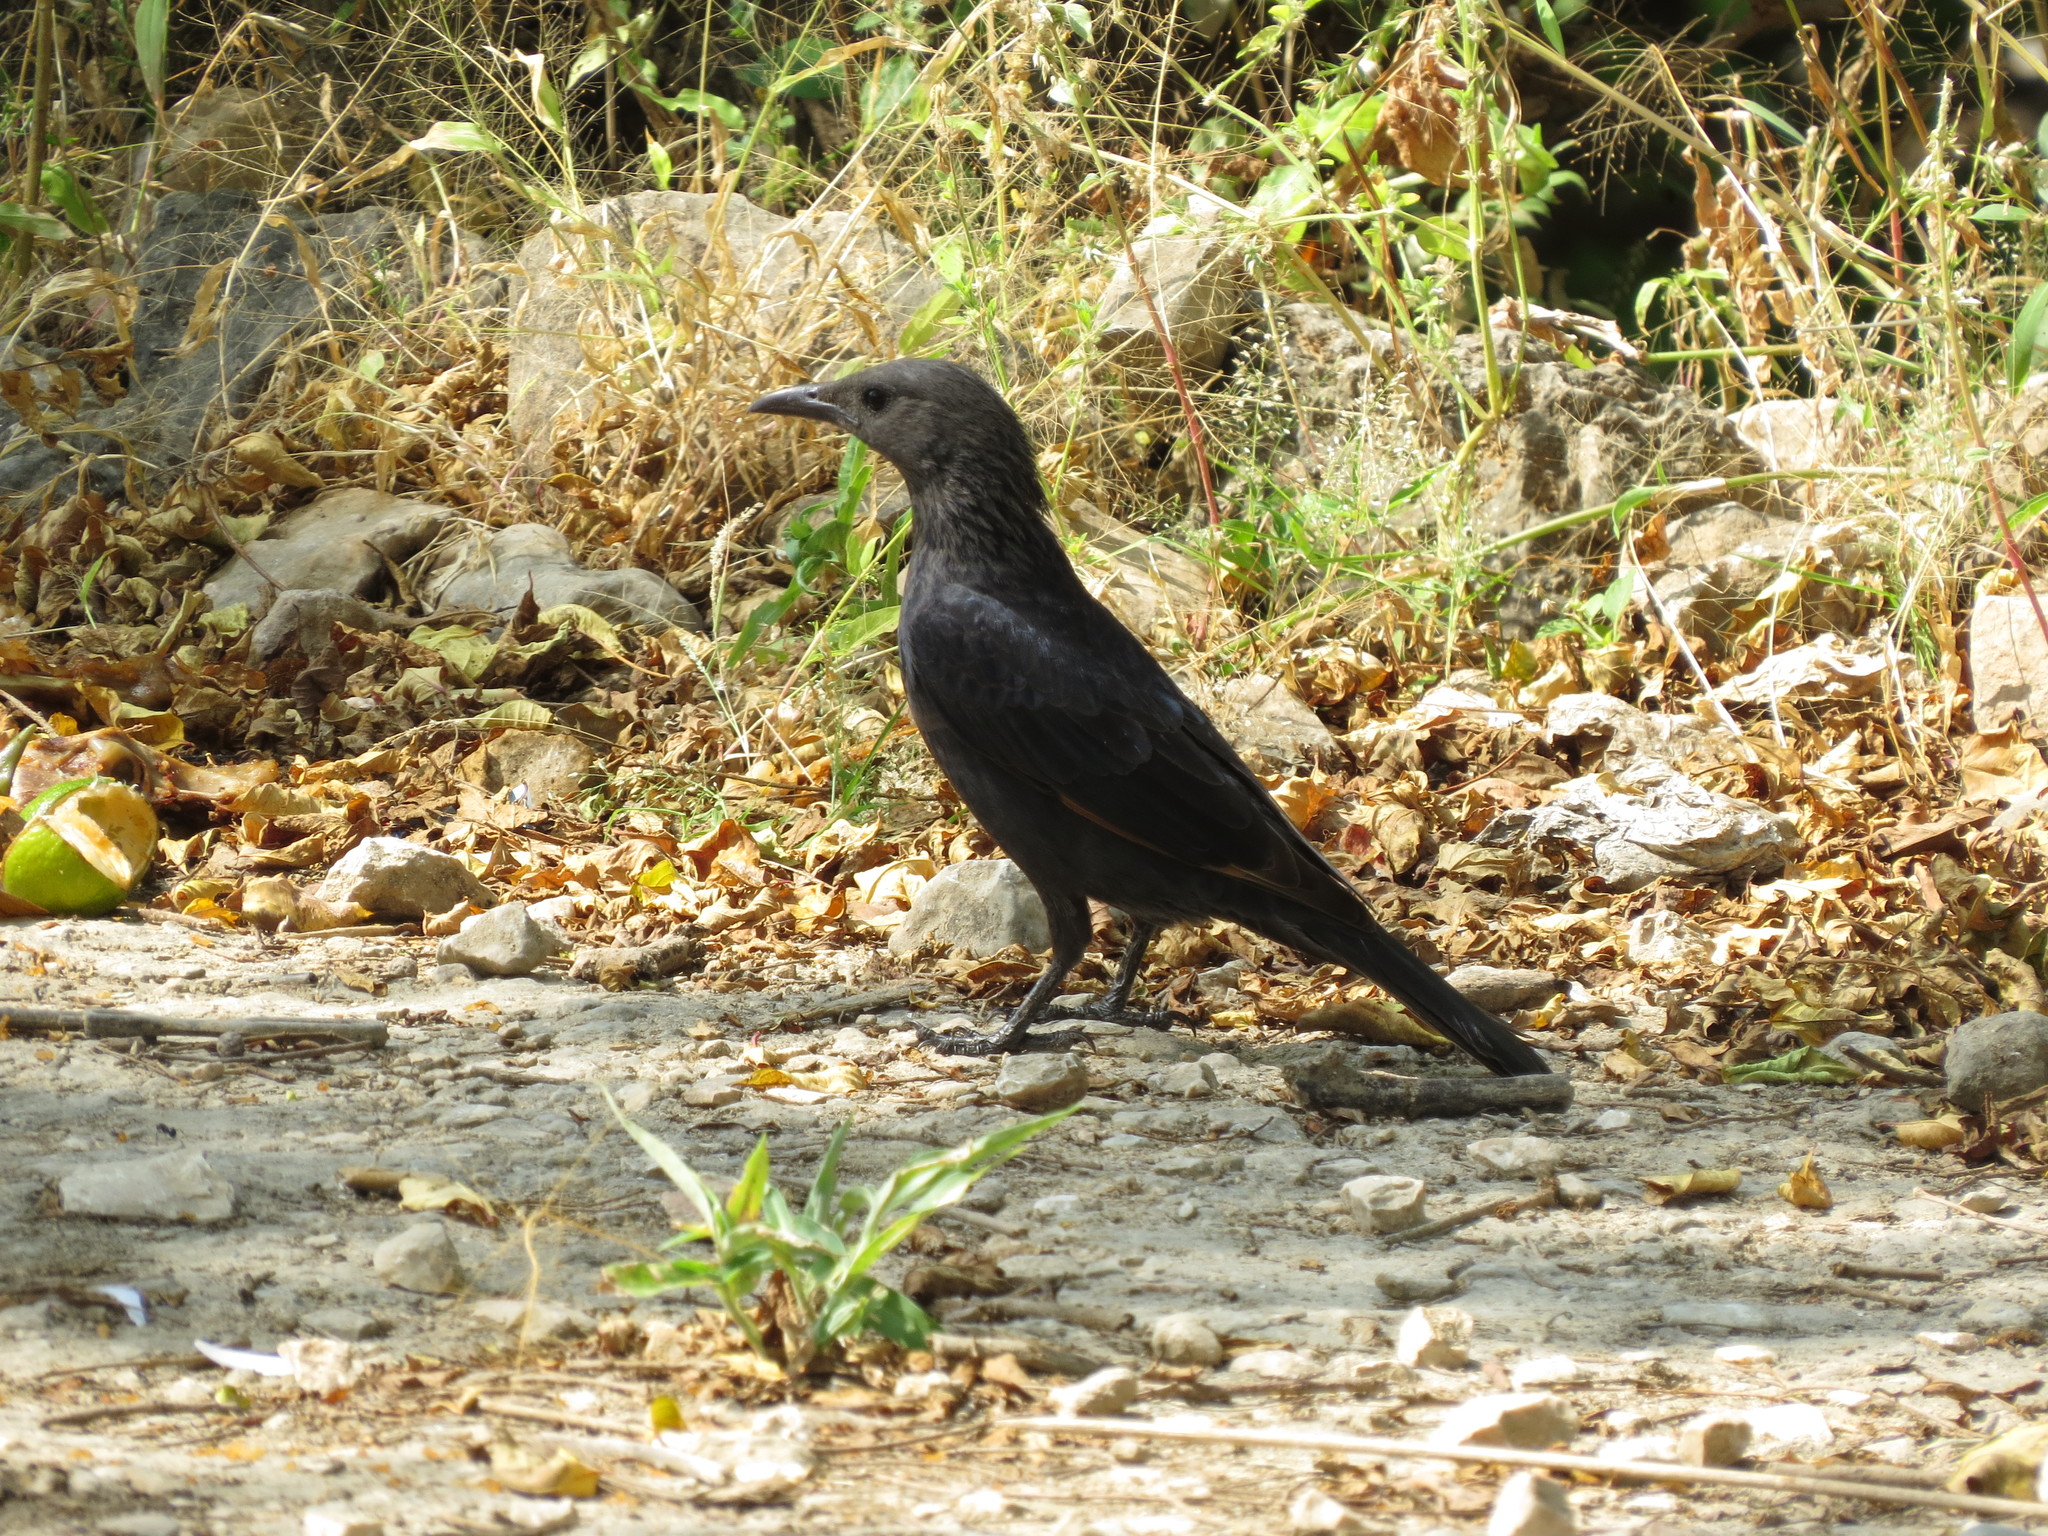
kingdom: Animalia
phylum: Chordata
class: Aves
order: Passeriformes
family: Sturnidae
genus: Onychognathus
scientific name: Onychognathus tristramii
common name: Tristram's starling
